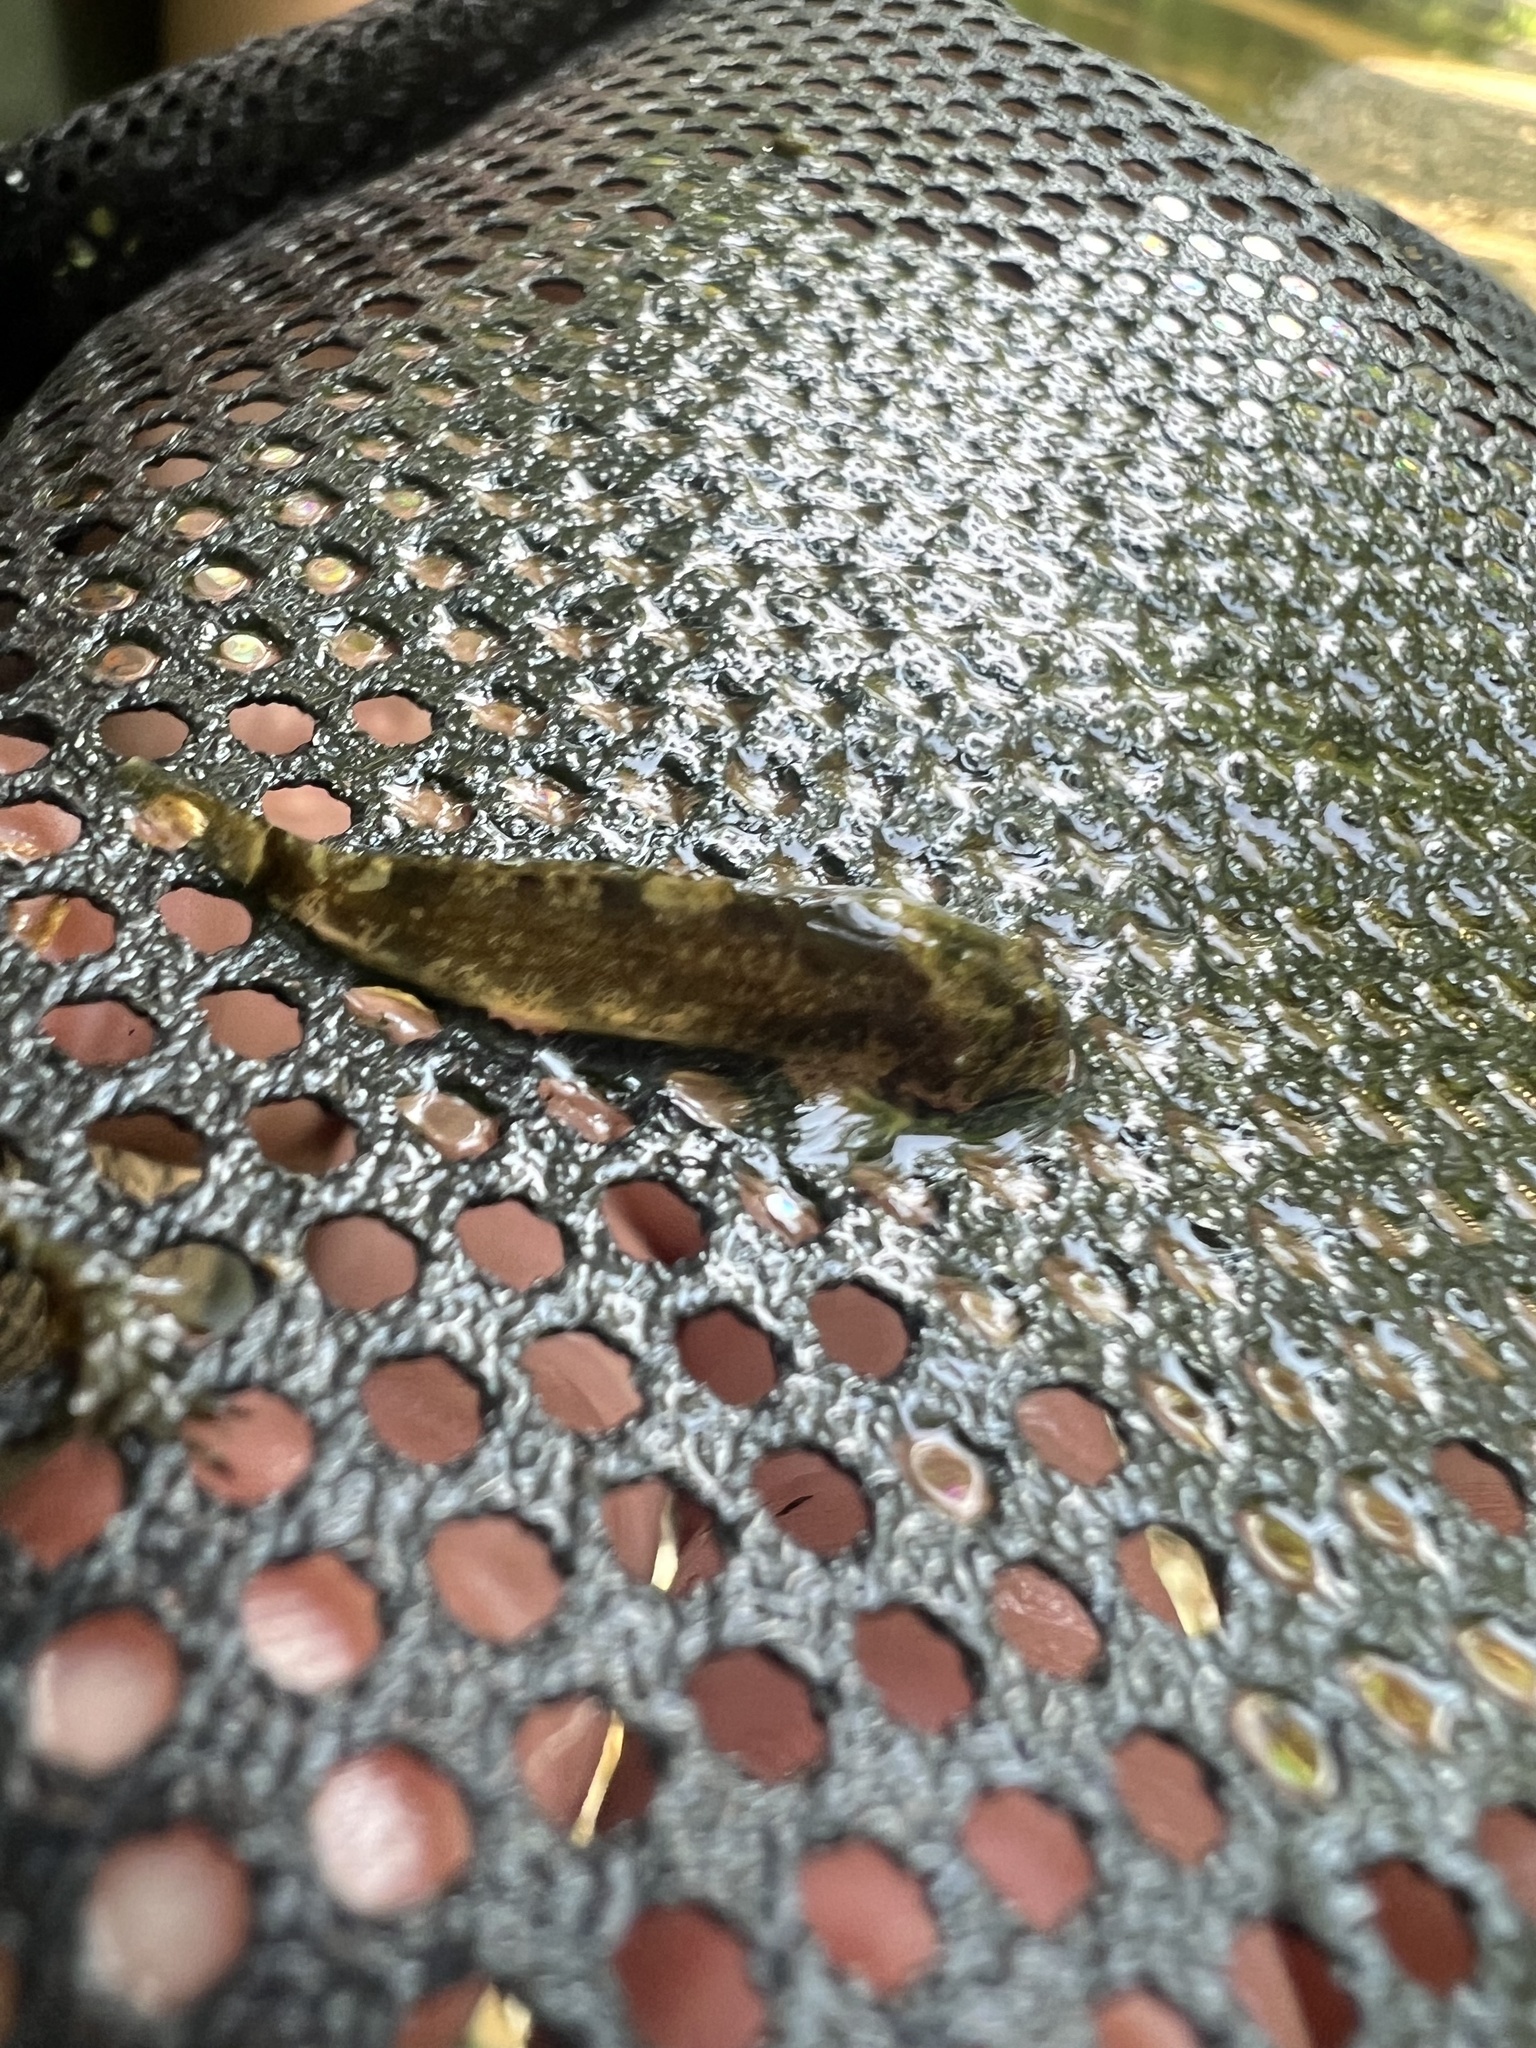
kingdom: Animalia
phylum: Chordata
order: Scorpaeniformes
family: Cottidae
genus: Cottus
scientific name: Cottus bairdii
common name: Mottled sculpin
